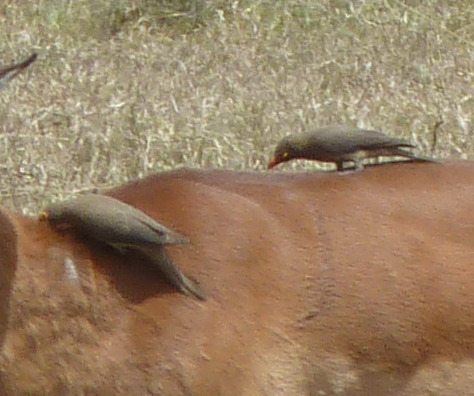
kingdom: Animalia
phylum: Chordata
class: Aves
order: Passeriformes
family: Buphagidae
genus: Buphagus
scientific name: Buphagus erythrorhynchus
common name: Red-billed oxpecker
